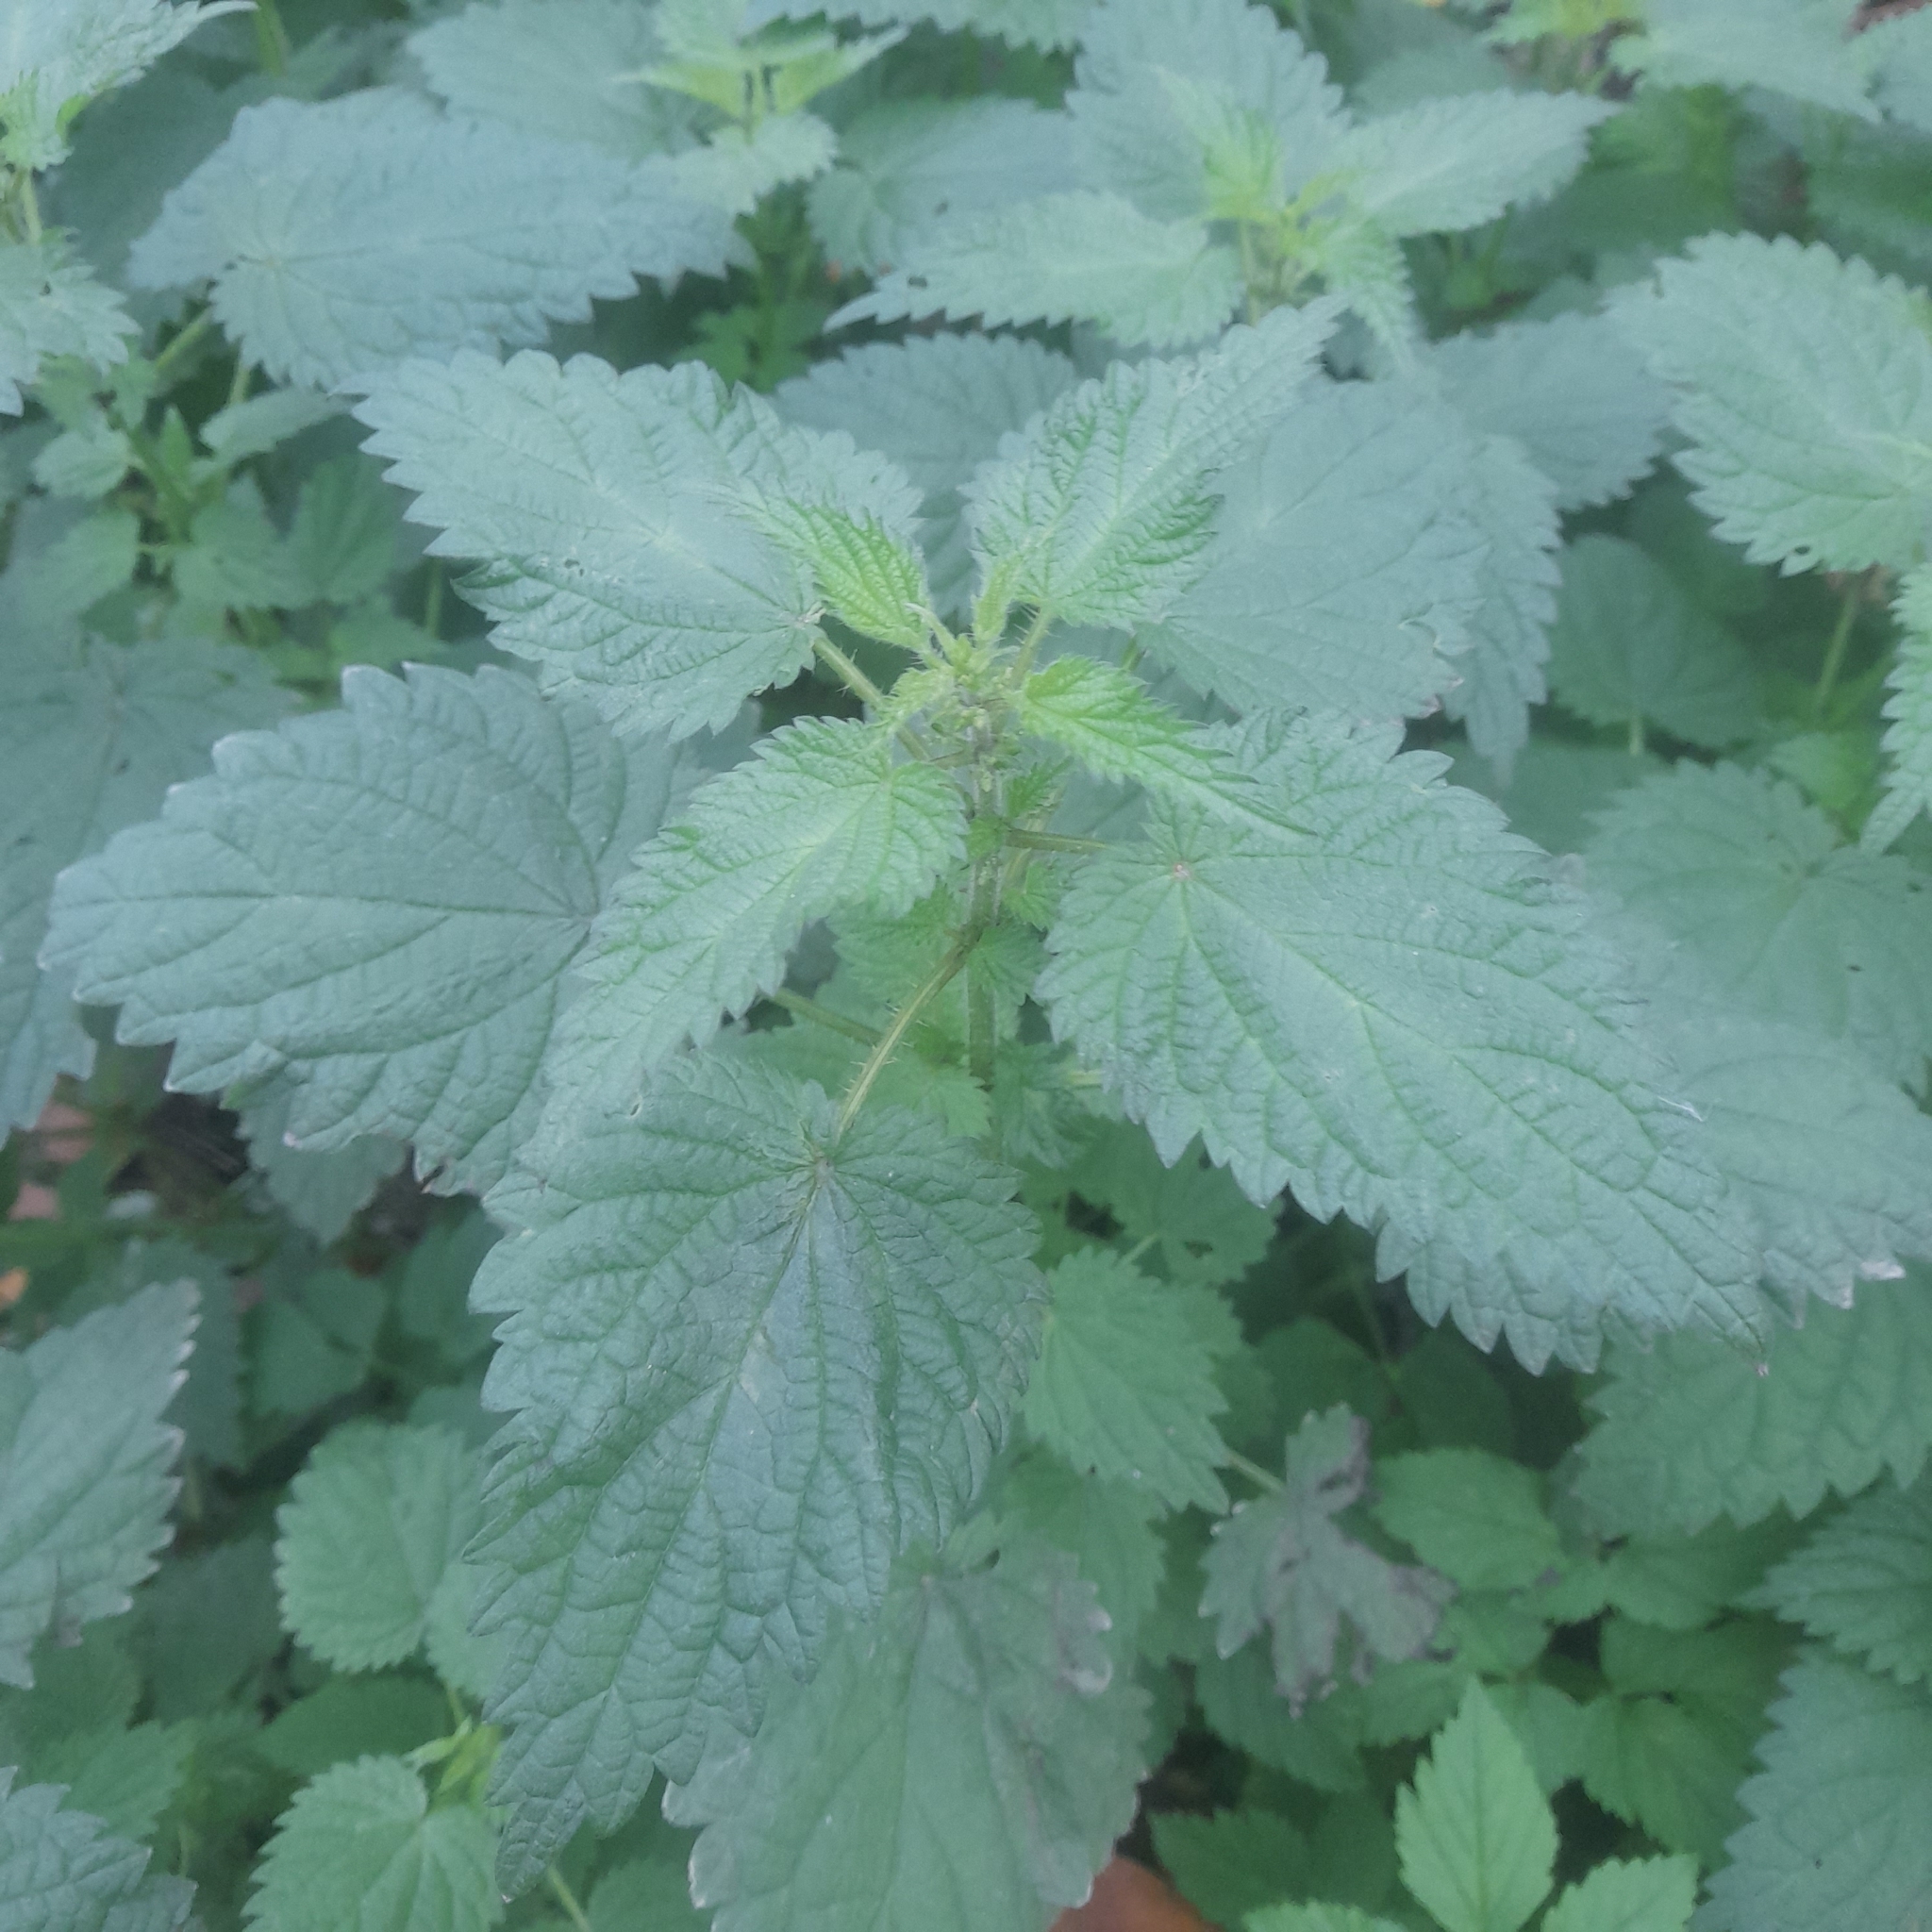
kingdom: Plantae
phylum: Tracheophyta
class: Magnoliopsida
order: Rosales
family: Urticaceae
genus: Urtica
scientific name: Urtica dioica
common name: Common nettle
